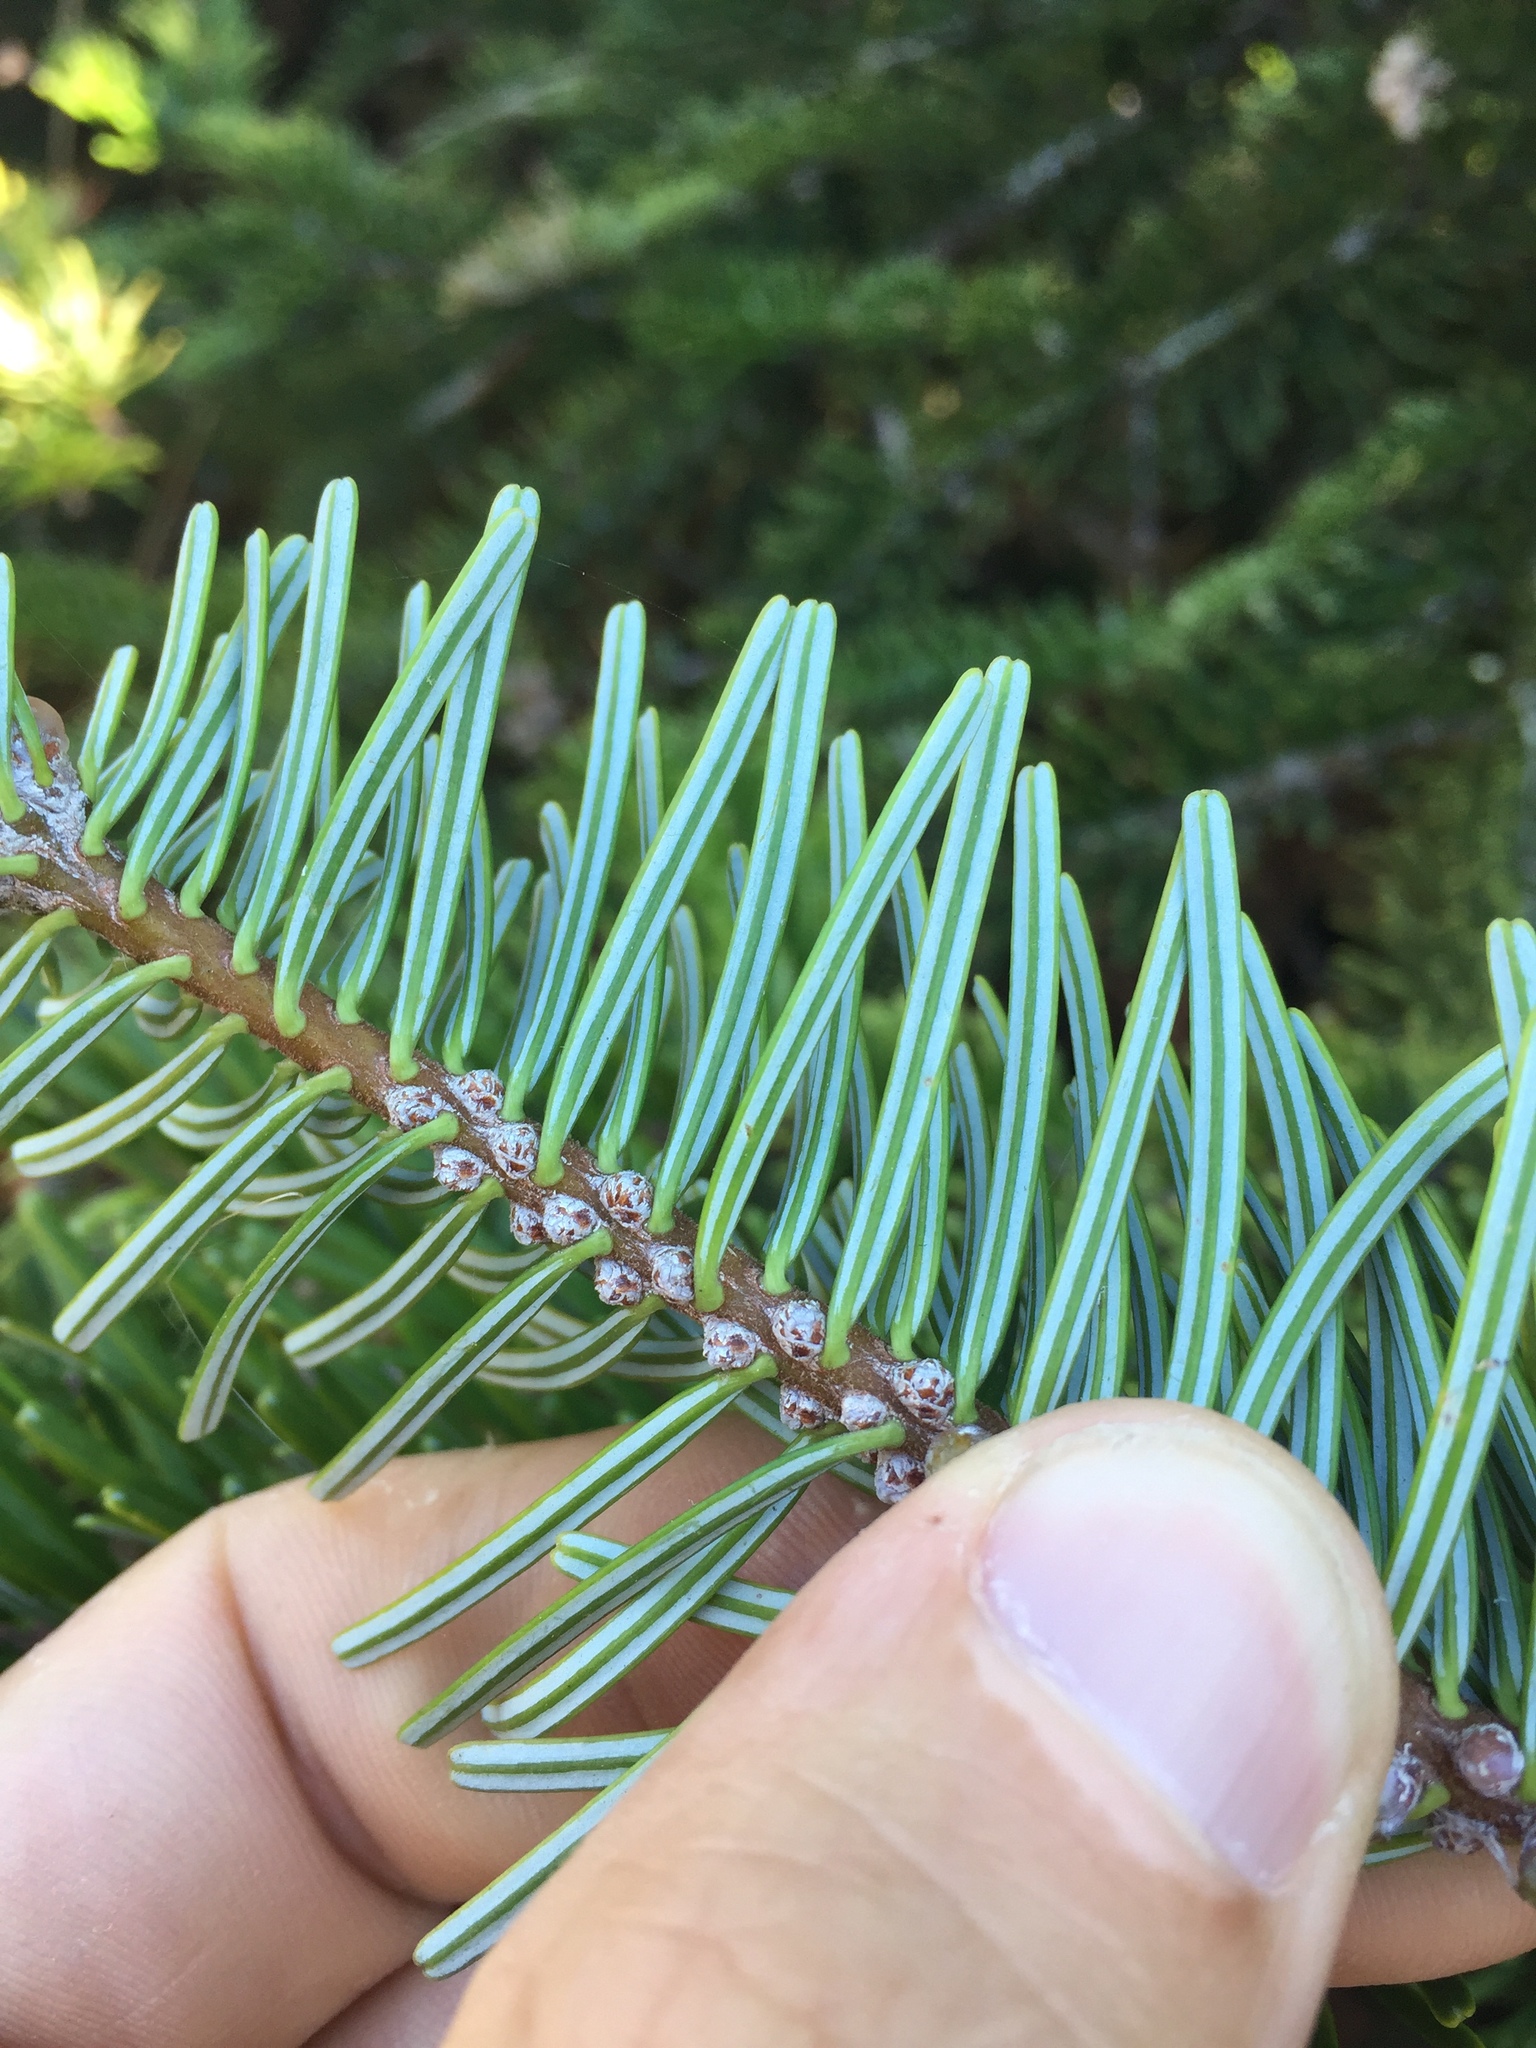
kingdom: Plantae
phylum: Tracheophyta
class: Pinopsida
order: Pinales
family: Pinaceae
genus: Abies
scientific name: Abies grandis
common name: Giant fir
